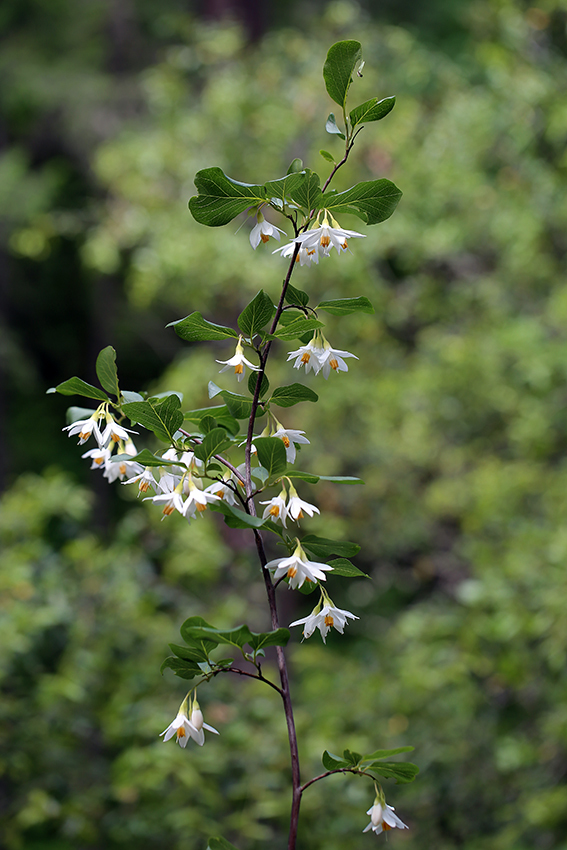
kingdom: Plantae
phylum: Tracheophyta
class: Magnoliopsida
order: Ericales
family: Styracaceae
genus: Styrax
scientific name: Styrax redivivus
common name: California styrax
